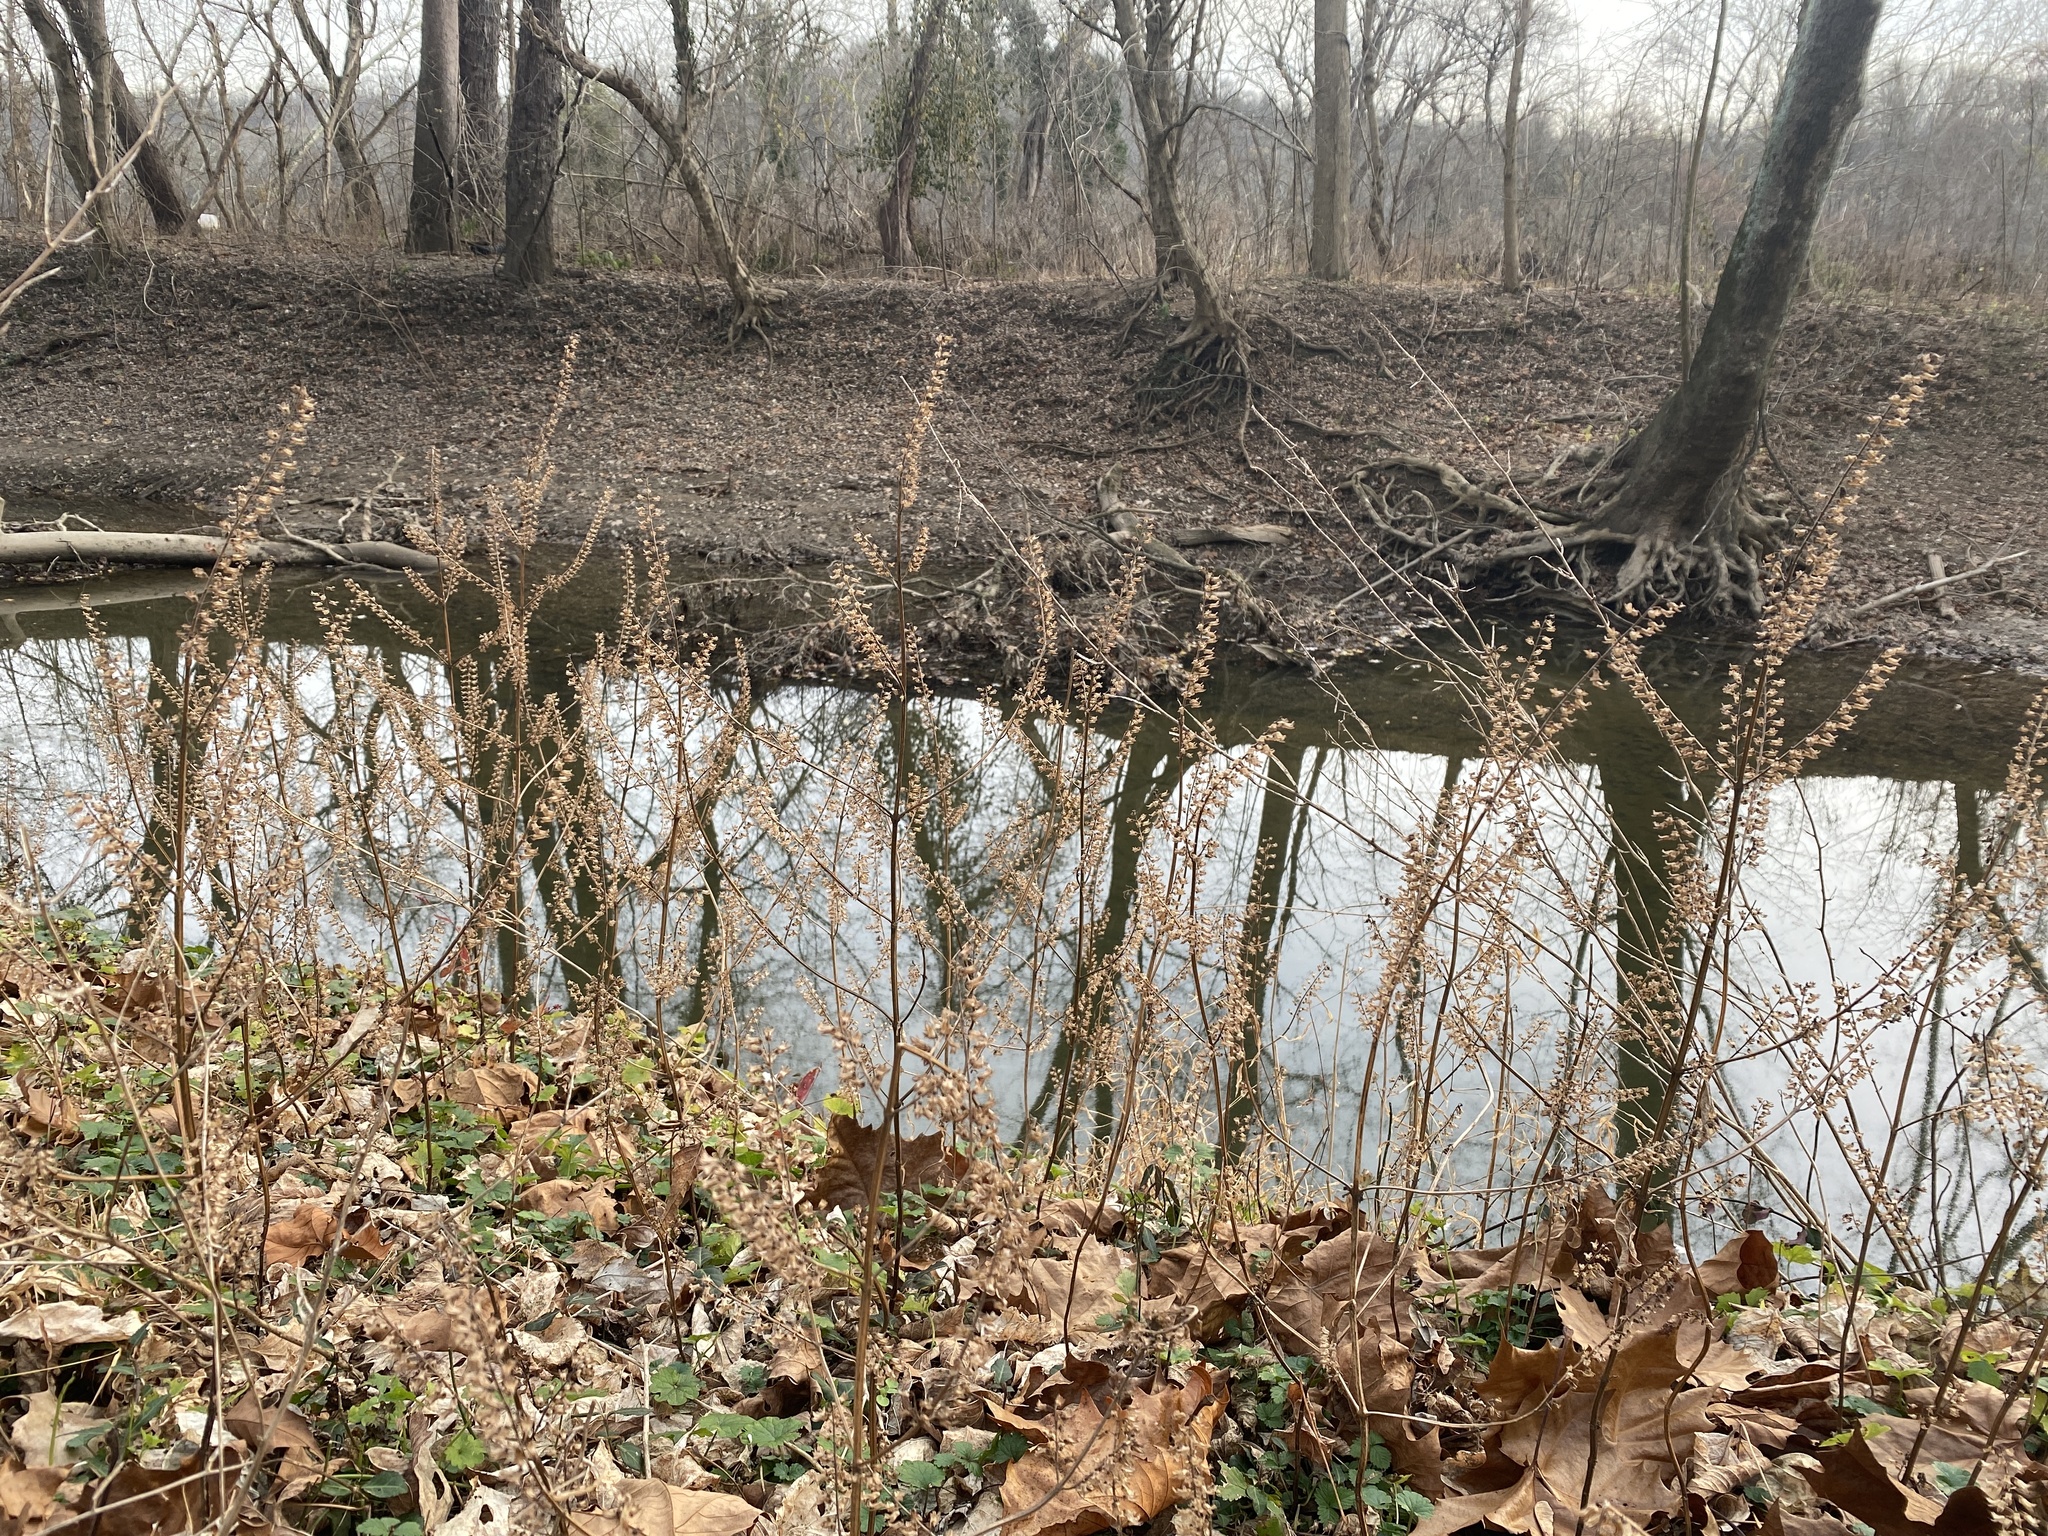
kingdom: Plantae
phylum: Tracheophyta
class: Magnoliopsida
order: Lamiales
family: Lamiaceae
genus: Perilla
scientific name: Perilla frutescens
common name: Perilla
